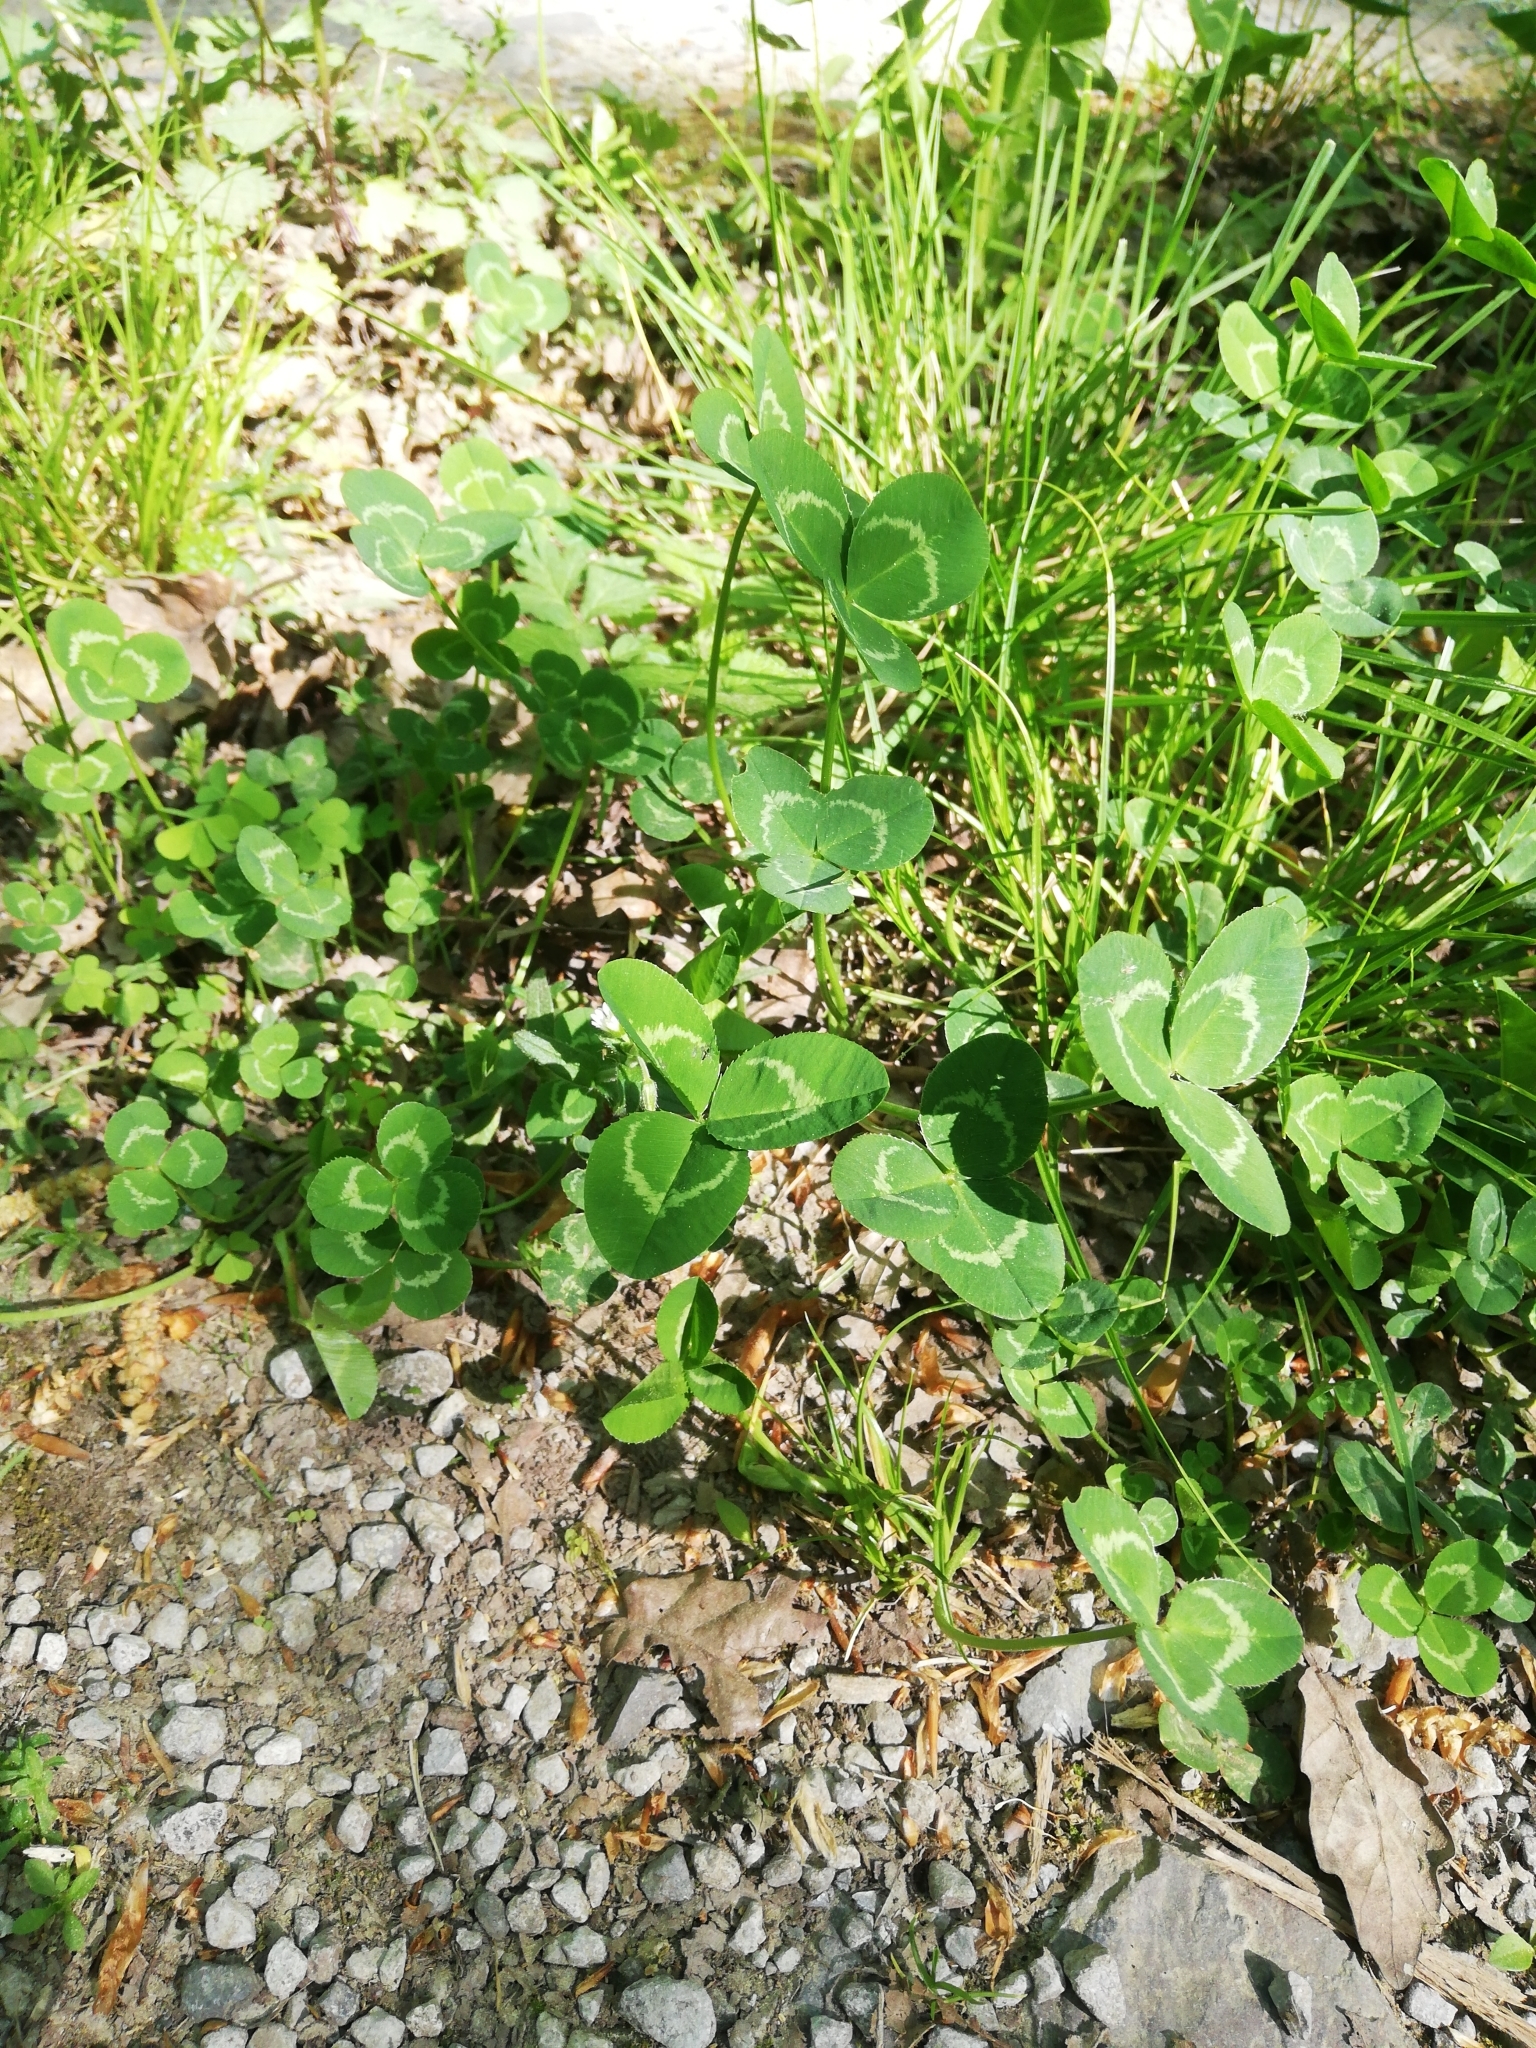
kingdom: Plantae
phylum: Tracheophyta
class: Magnoliopsida
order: Fabales
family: Fabaceae
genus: Trifolium
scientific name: Trifolium repens
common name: White clover
